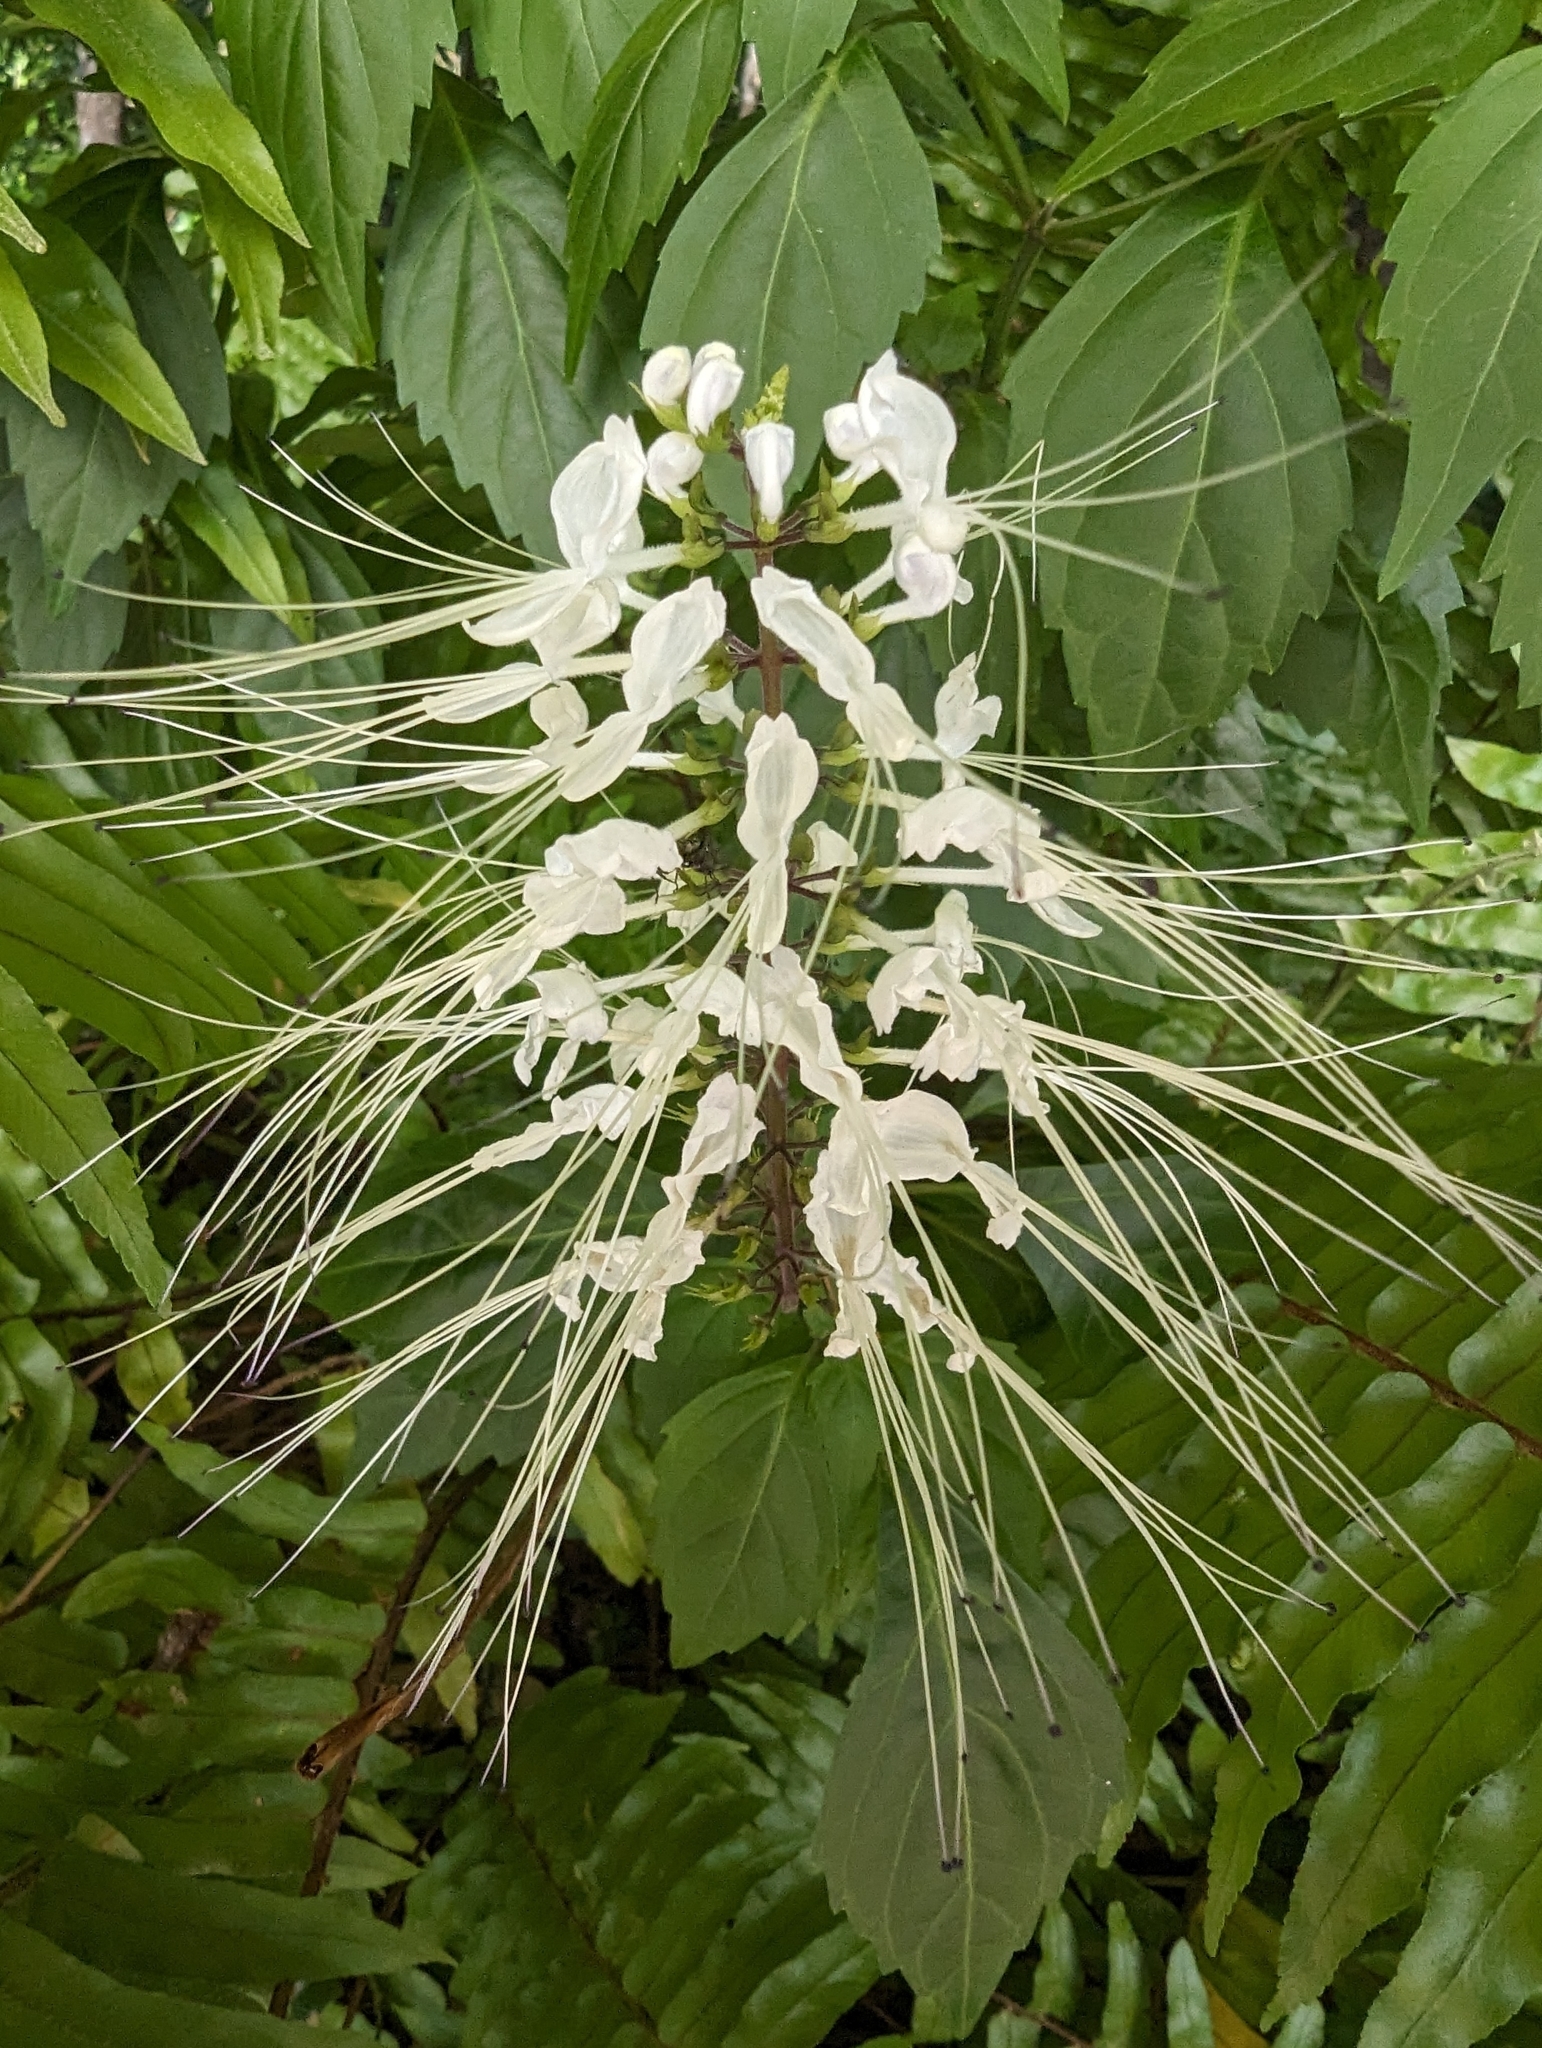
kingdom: Plantae
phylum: Tracheophyta
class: Magnoliopsida
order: Lamiales
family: Lamiaceae
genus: Orthosiphon
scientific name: Orthosiphon aristatus
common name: Whiskerplant
